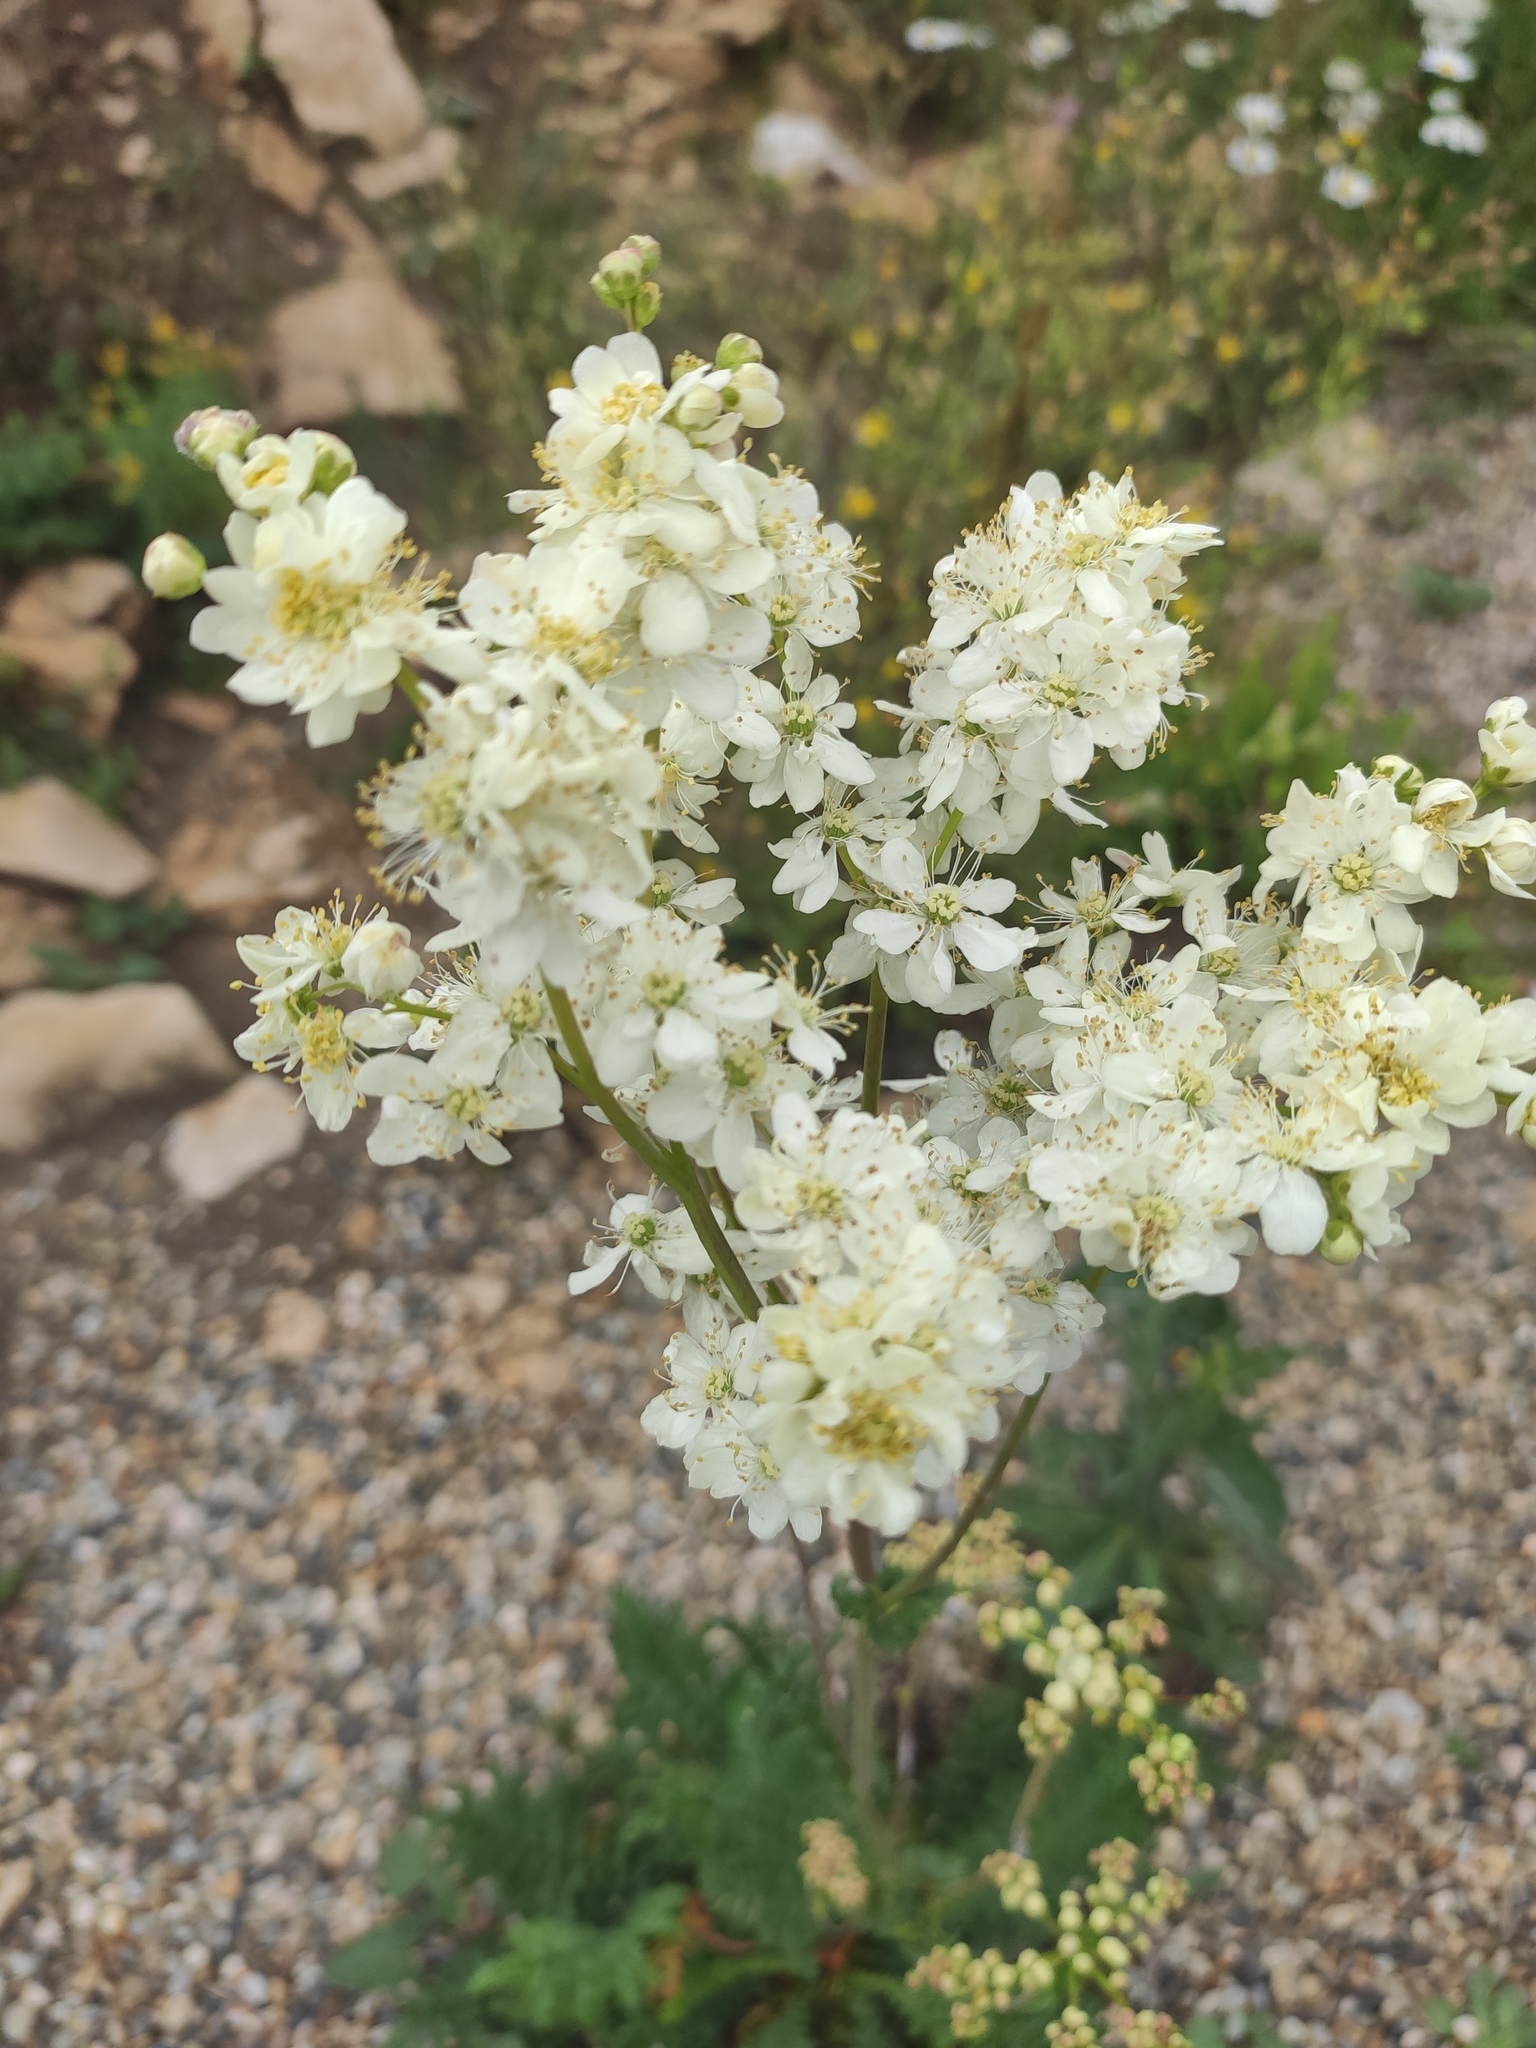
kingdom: Plantae
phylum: Tracheophyta
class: Magnoliopsida
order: Rosales
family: Rosaceae
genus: Filipendula
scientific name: Filipendula vulgaris
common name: Dropwort
